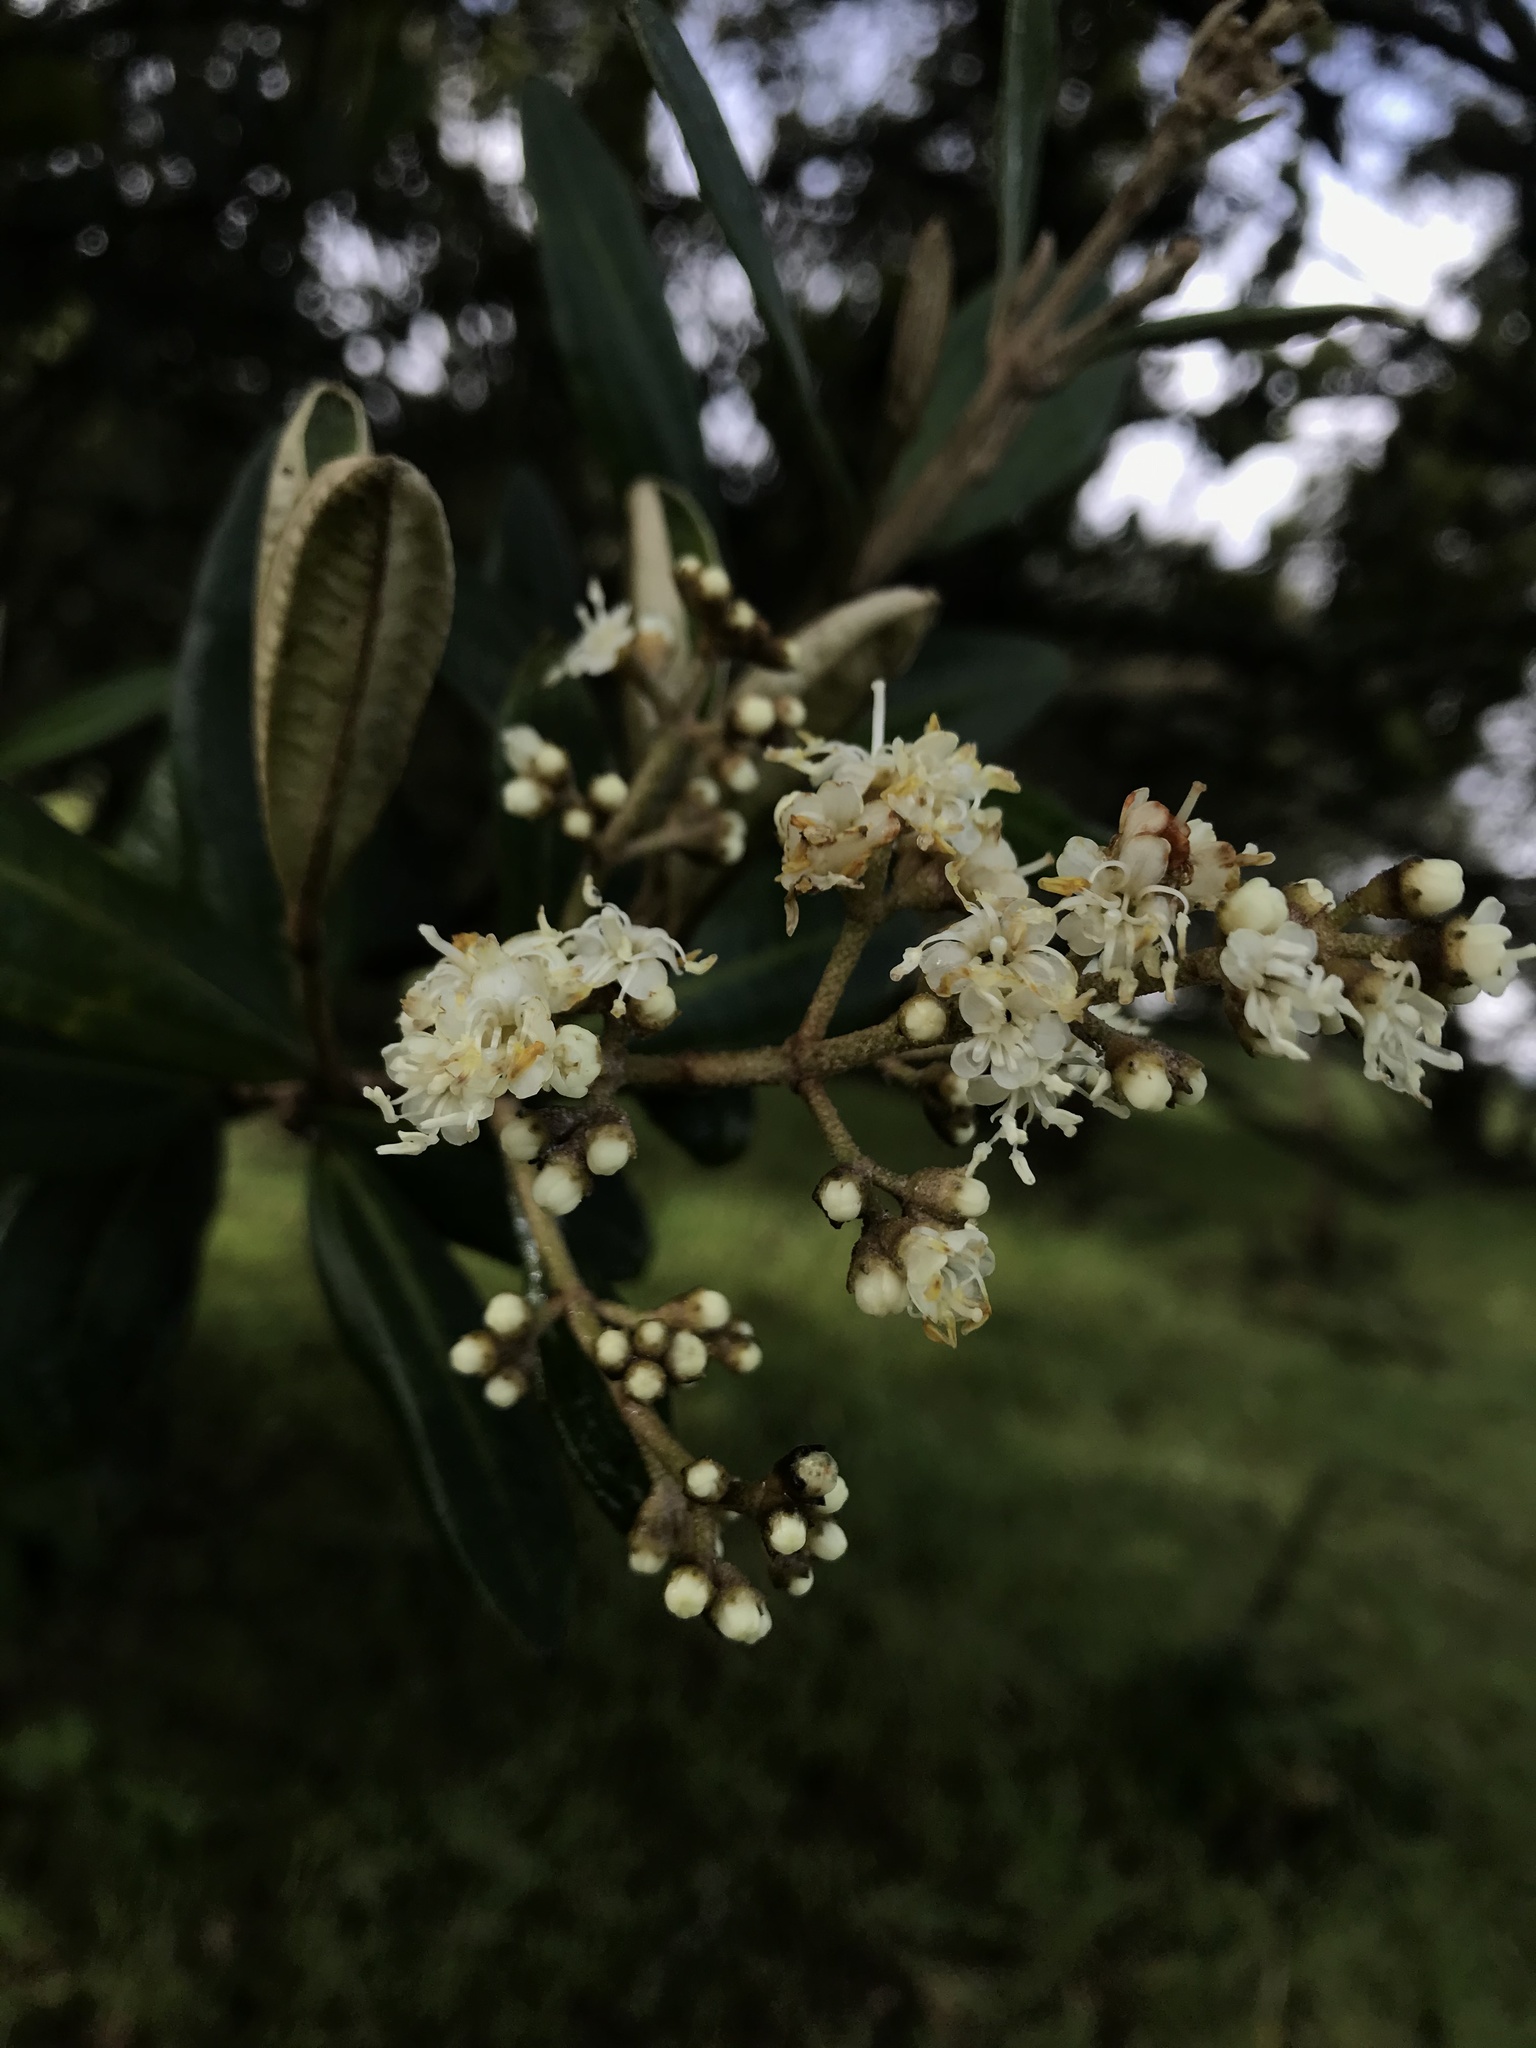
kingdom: Plantae
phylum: Tracheophyta
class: Magnoliopsida
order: Myrtales
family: Melastomataceae
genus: Miconia
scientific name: Miconia squamulosa
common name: Squamulose maya
